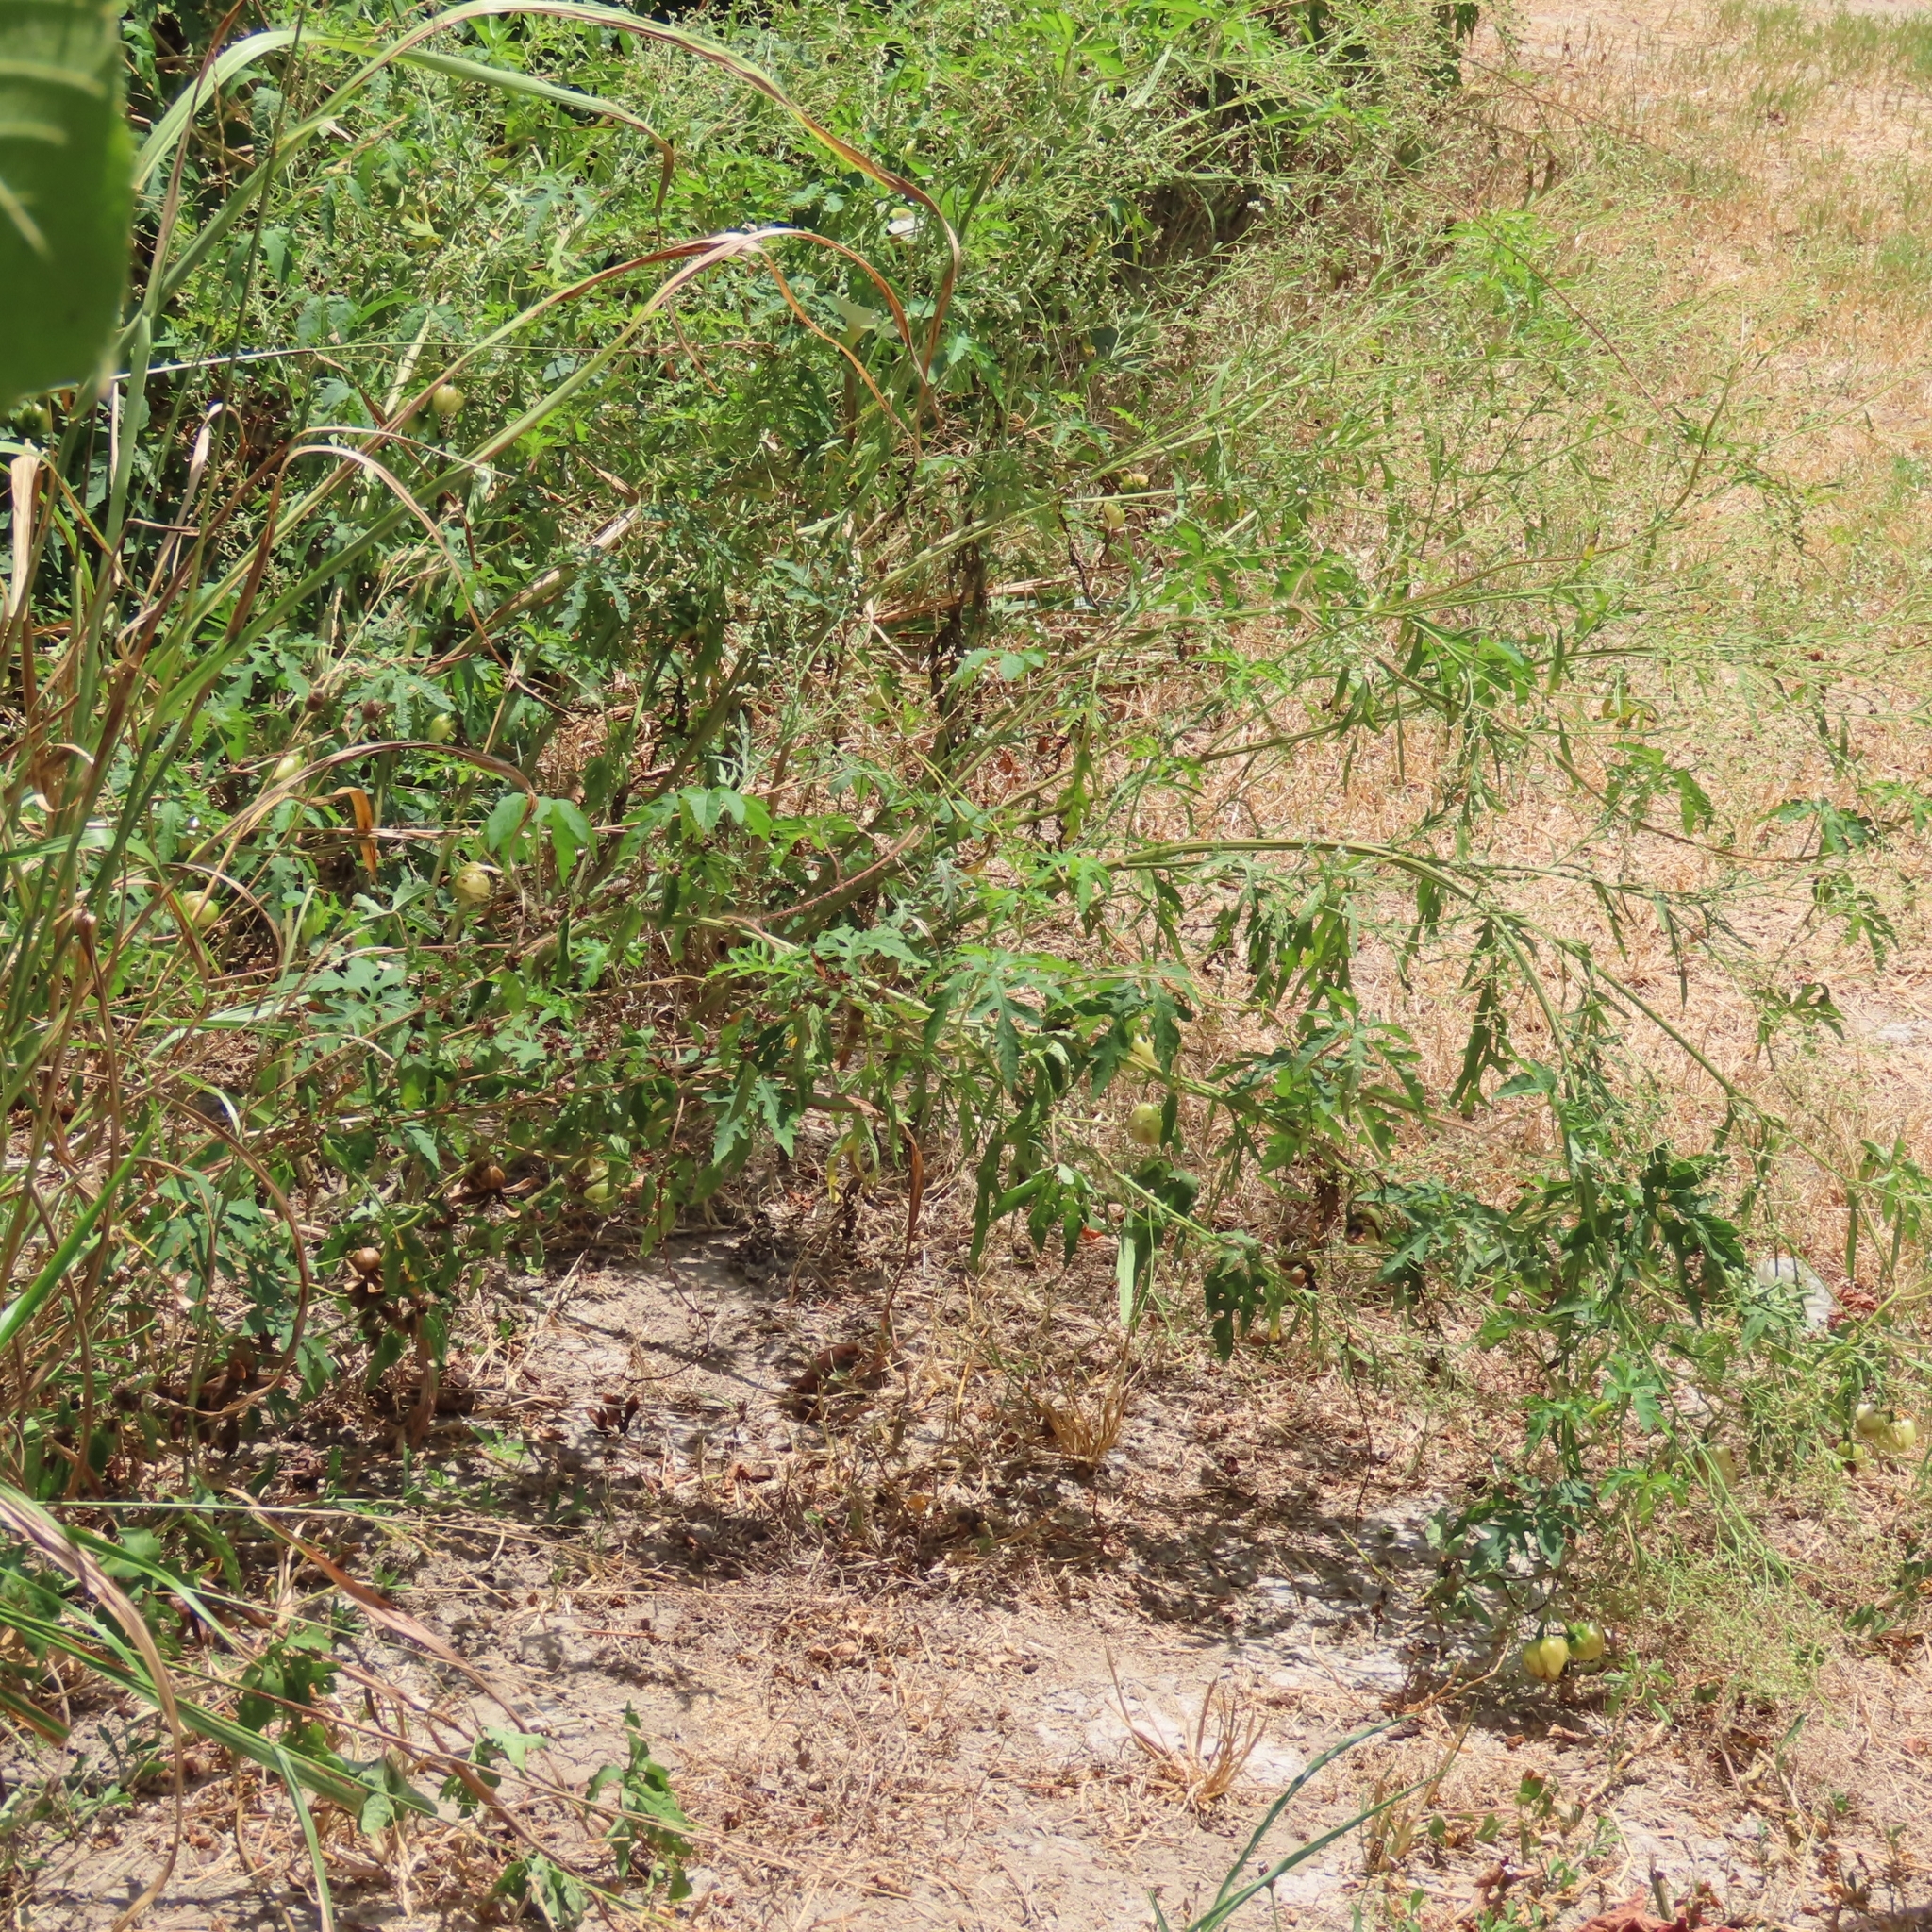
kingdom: Plantae
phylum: Tracheophyta
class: Magnoliopsida
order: Solanales
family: Convolvulaceae
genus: Distimake
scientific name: Distimake dissectus
